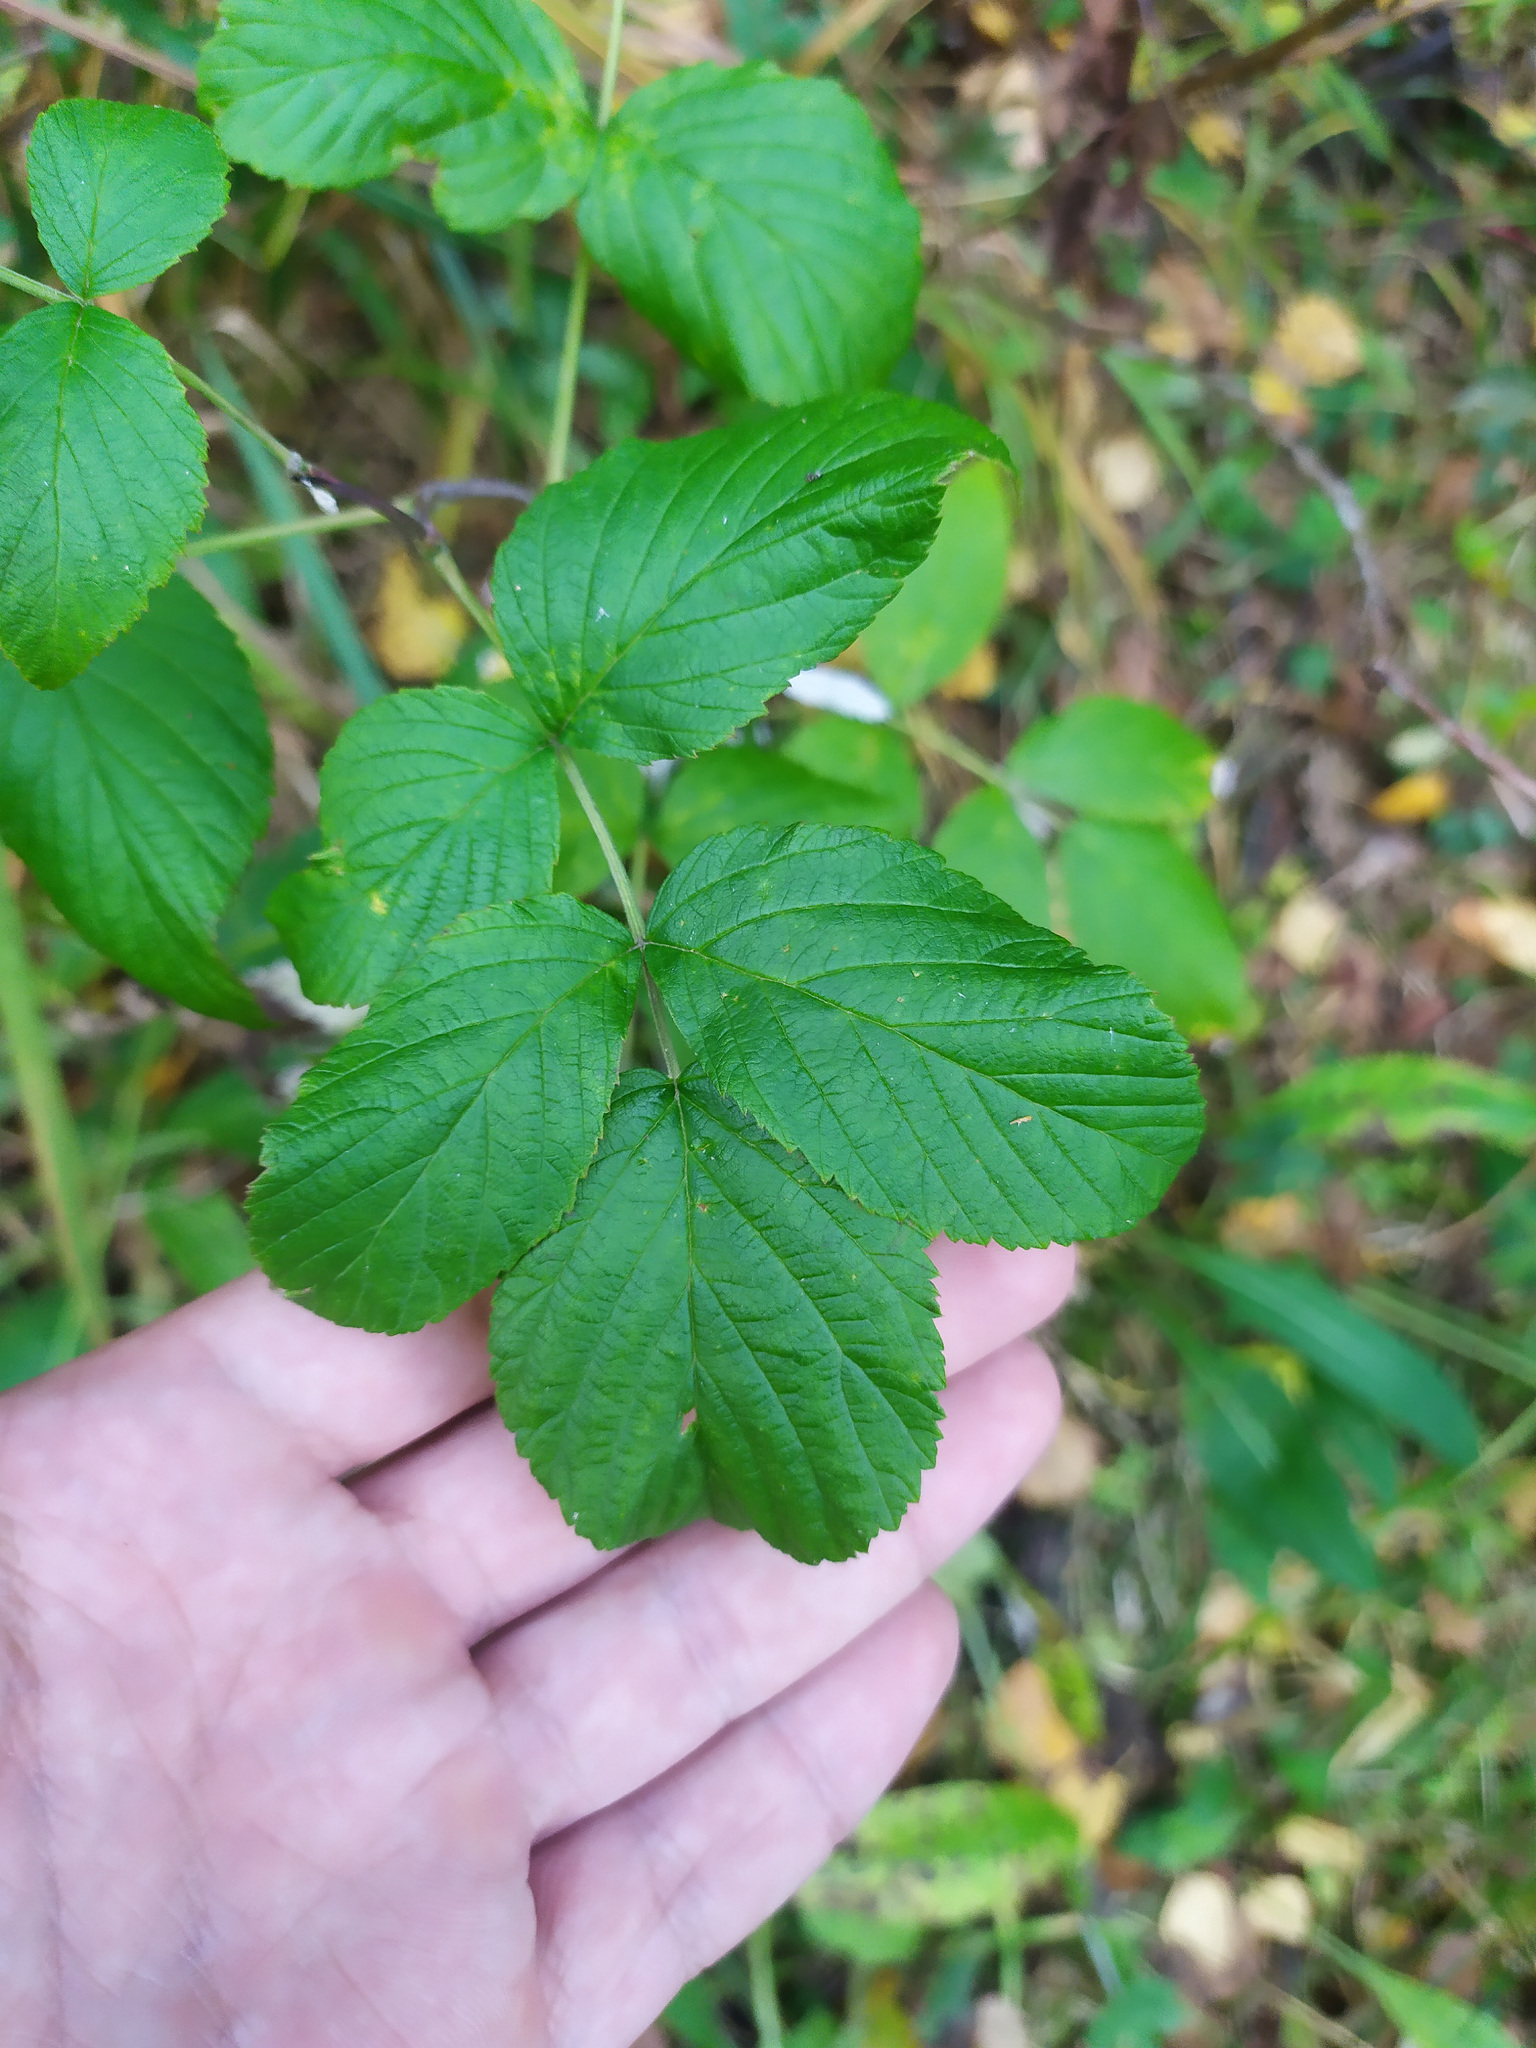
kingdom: Plantae
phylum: Tracheophyta
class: Magnoliopsida
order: Rosales
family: Rosaceae
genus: Rubus
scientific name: Rubus idaeus
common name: Raspberry
